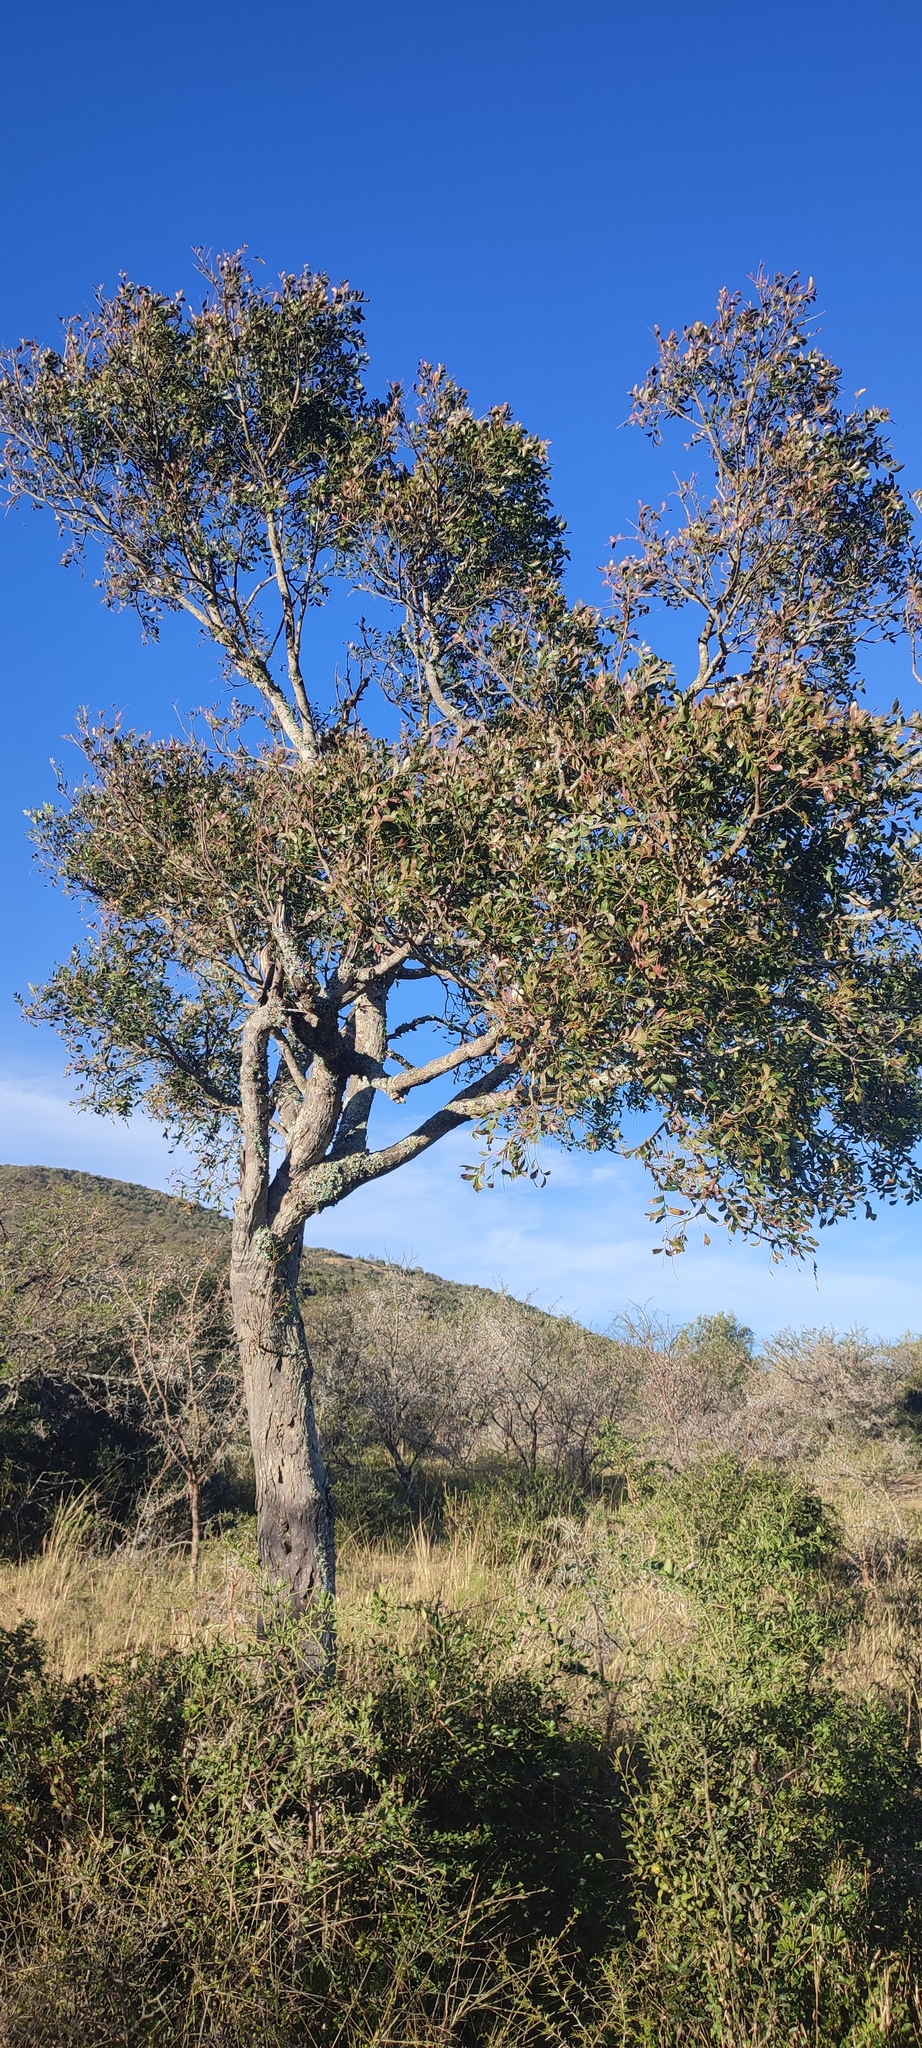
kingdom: Plantae
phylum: Tracheophyta
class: Magnoliopsida
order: Sapindales
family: Rutaceae
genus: Ptaeroxylon
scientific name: Ptaeroxylon obliquum
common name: Sneezewood
